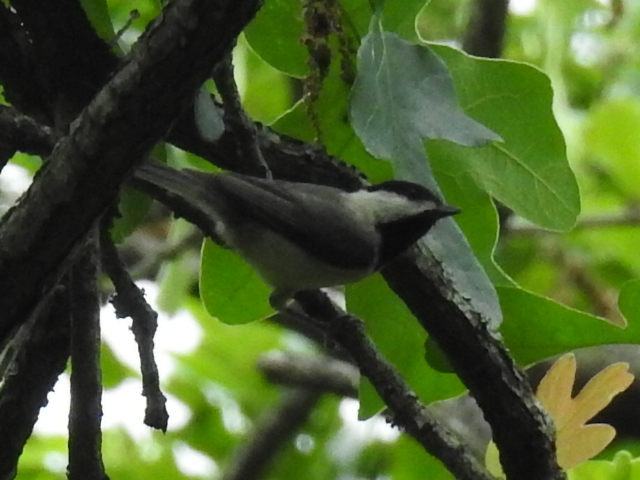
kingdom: Animalia
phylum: Chordata
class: Aves
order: Passeriformes
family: Paridae
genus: Poecile
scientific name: Poecile carolinensis
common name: Carolina chickadee
